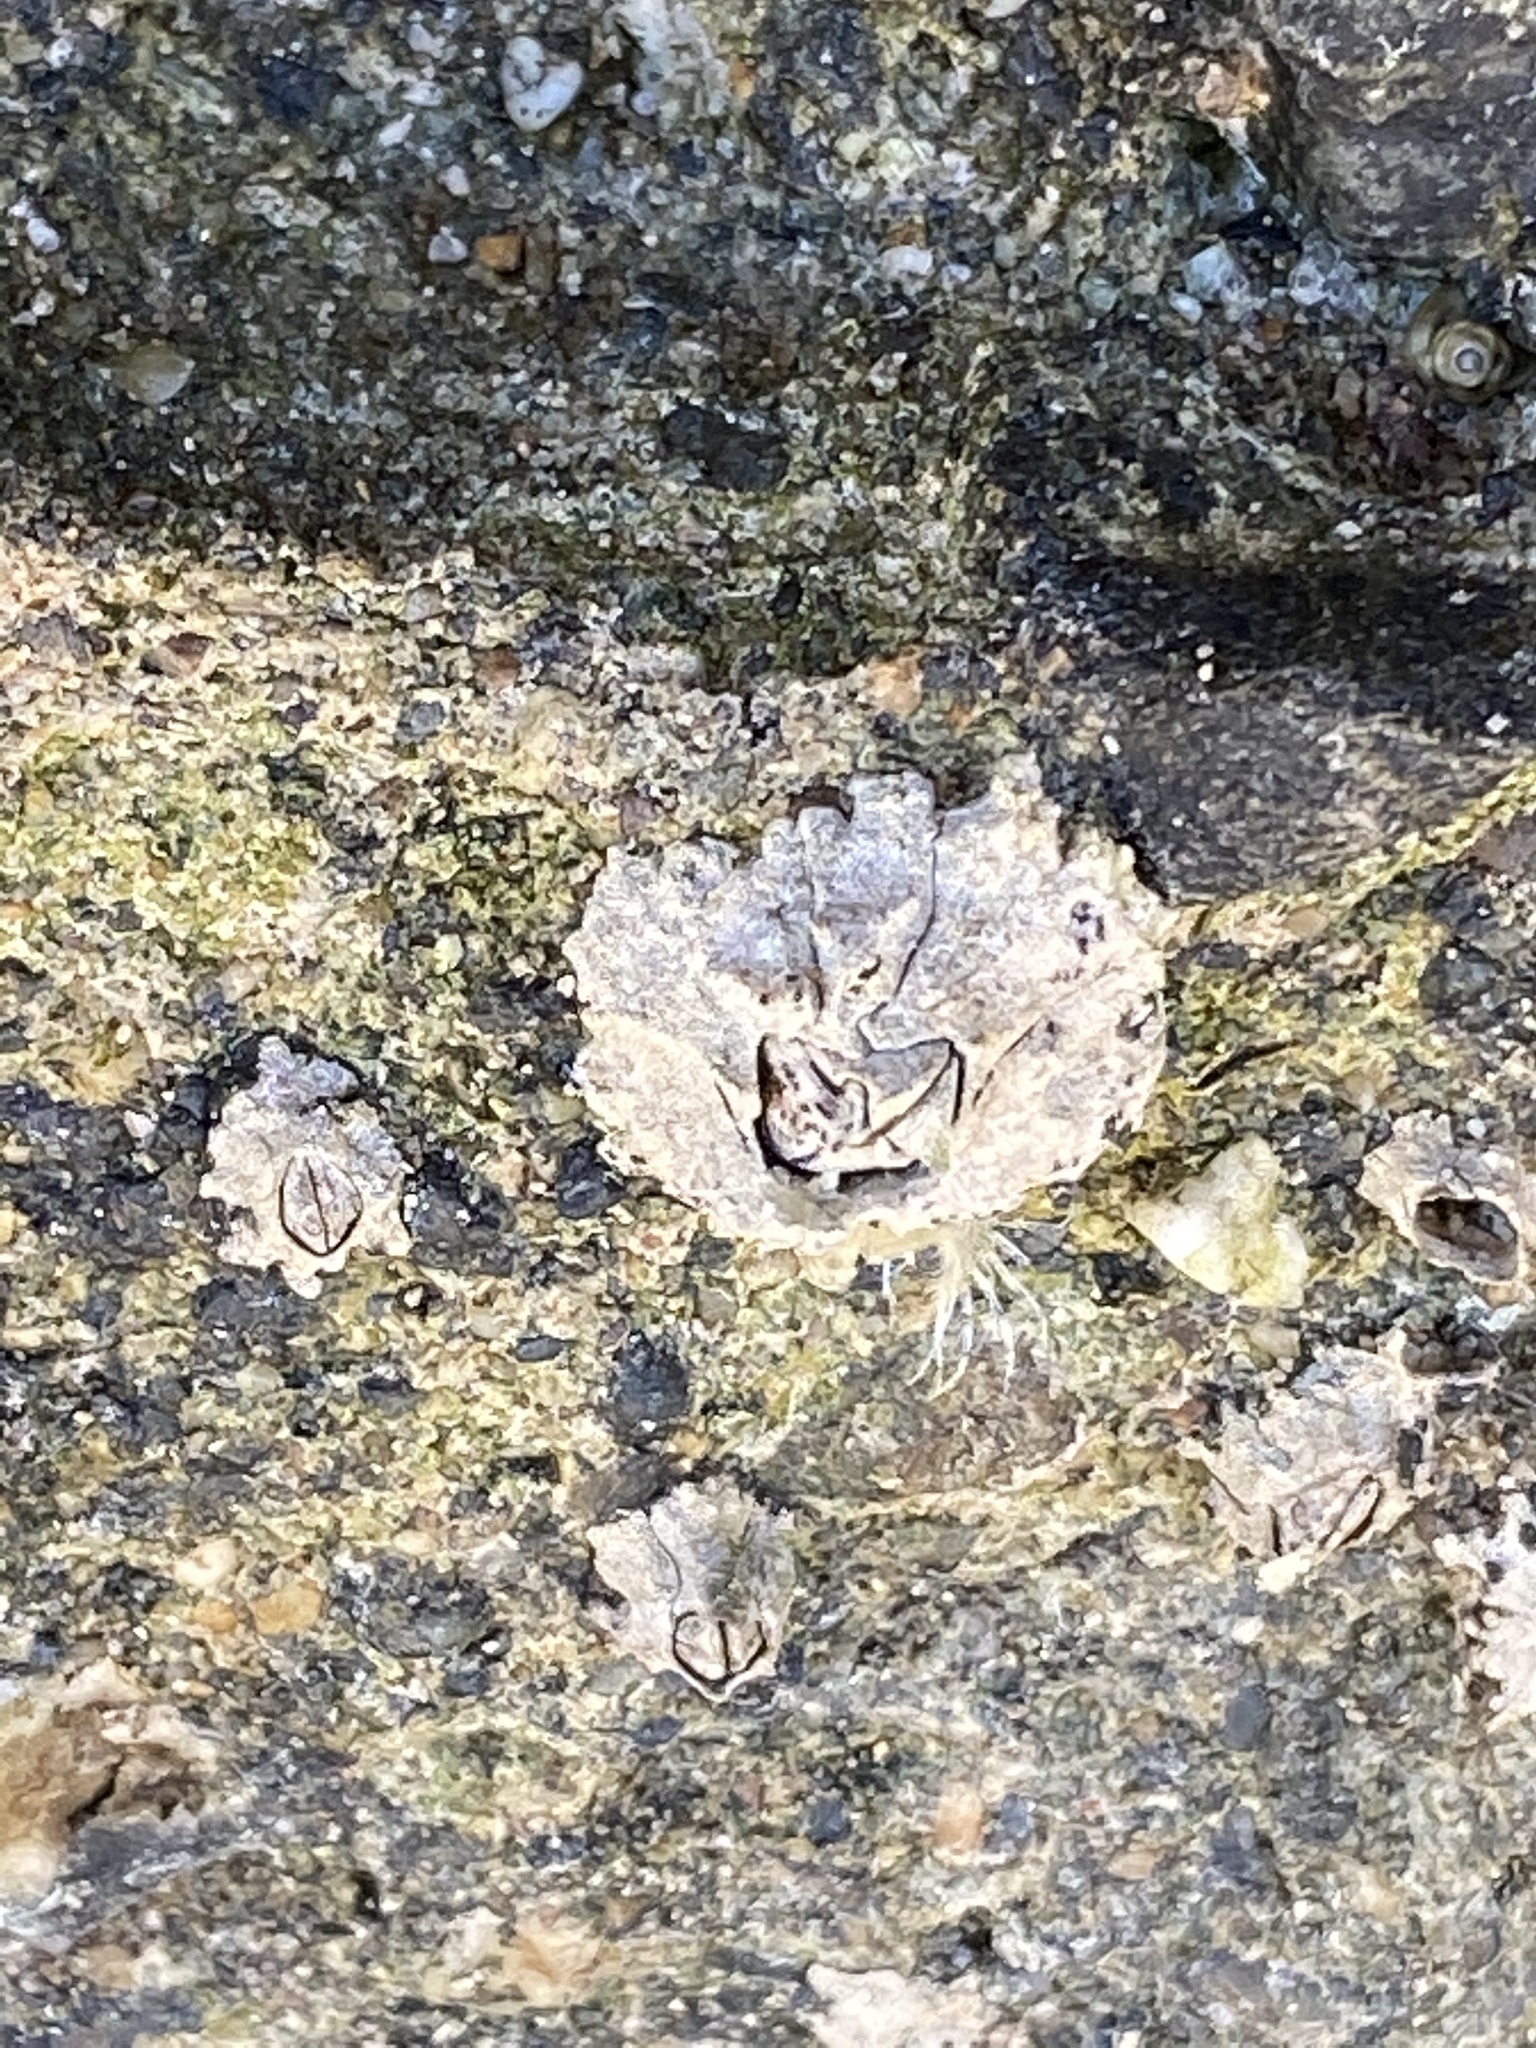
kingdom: Animalia
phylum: Arthropoda
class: Maxillopoda
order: Sessilia
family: Balanidae
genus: Balanus
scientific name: Balanus glandula
